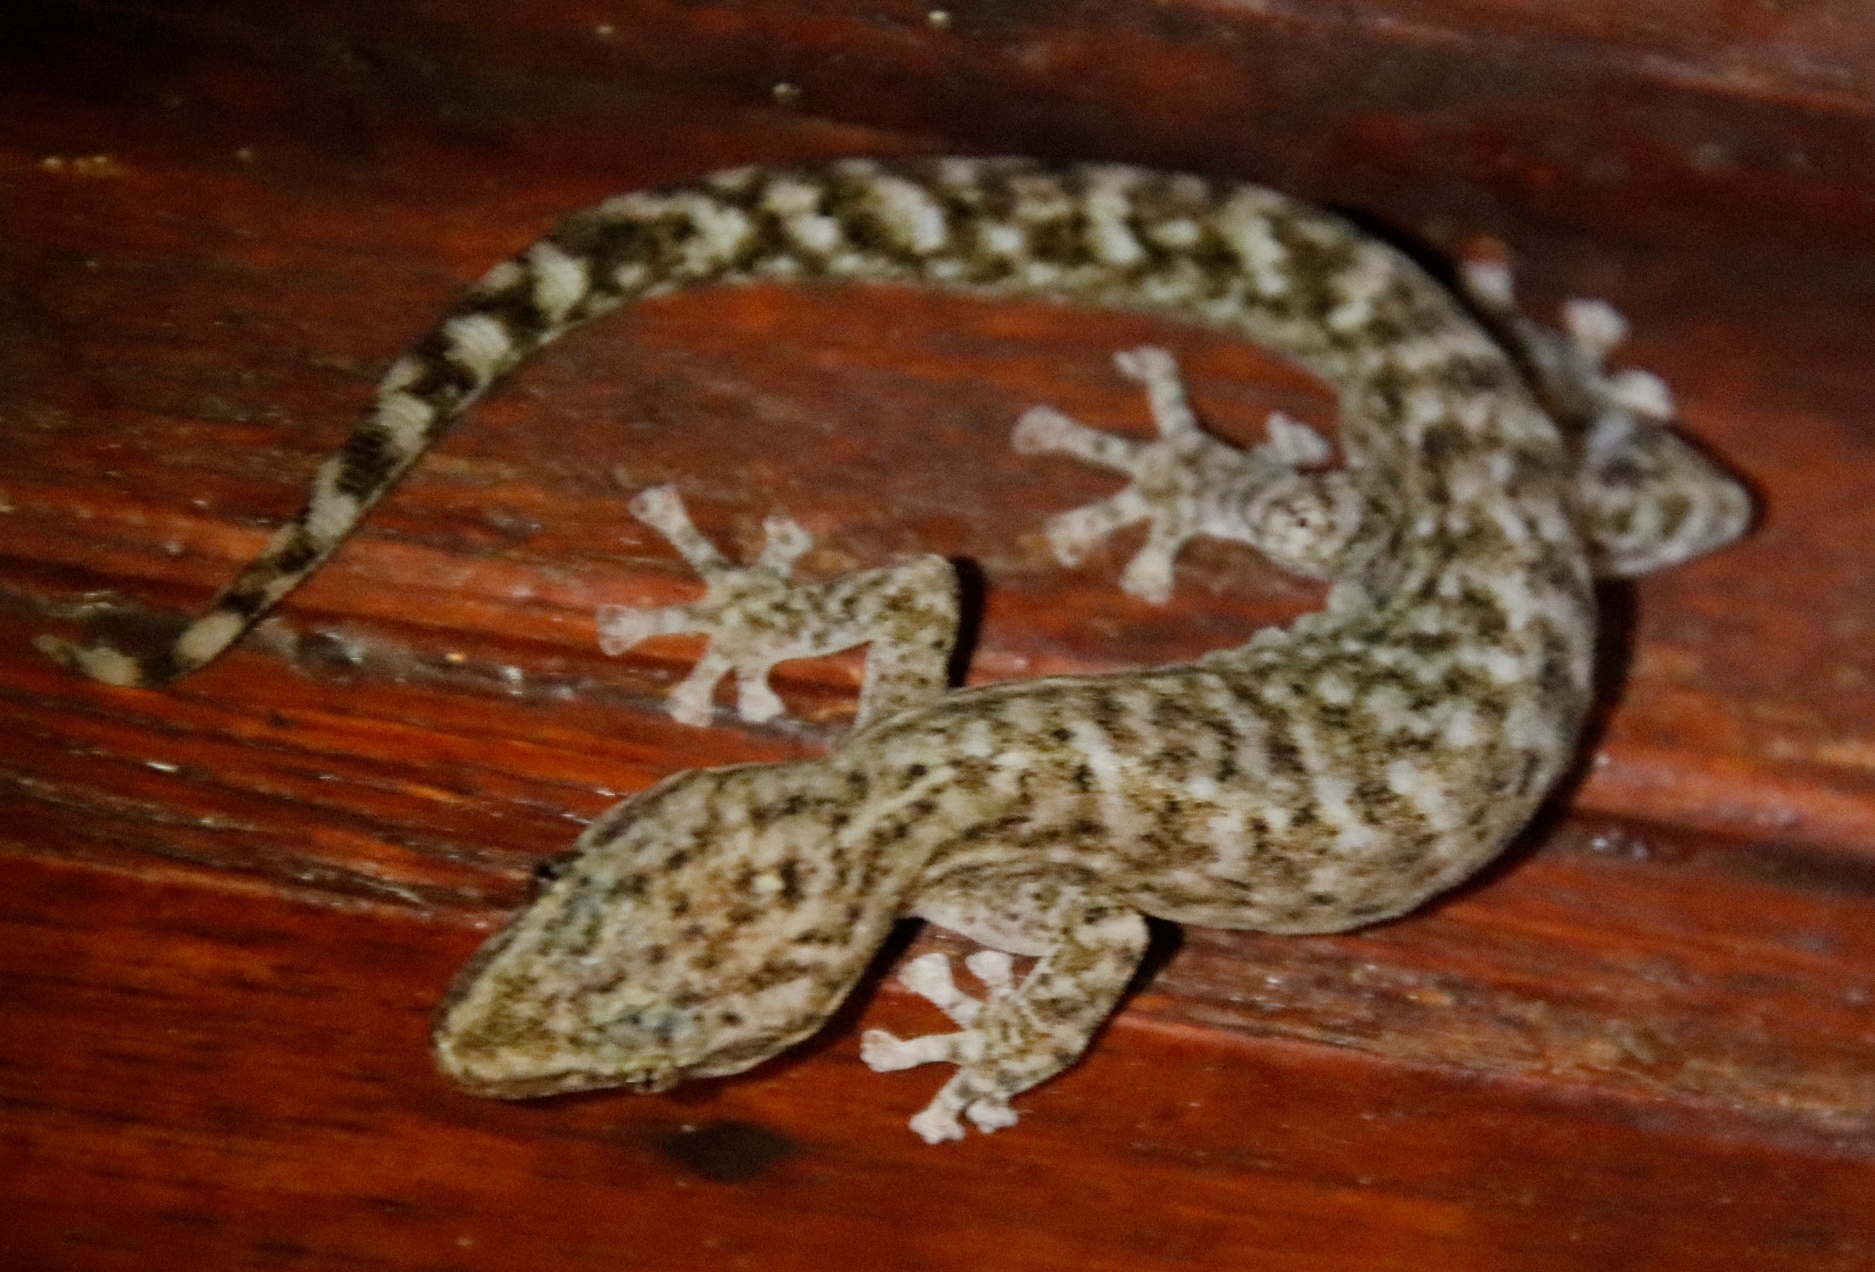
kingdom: Animalia
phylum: Chordata
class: Squamata
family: Gekkonidae
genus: Afrogecko
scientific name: Afrogecko porphyreus
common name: Marbled leaf-toed gecko
